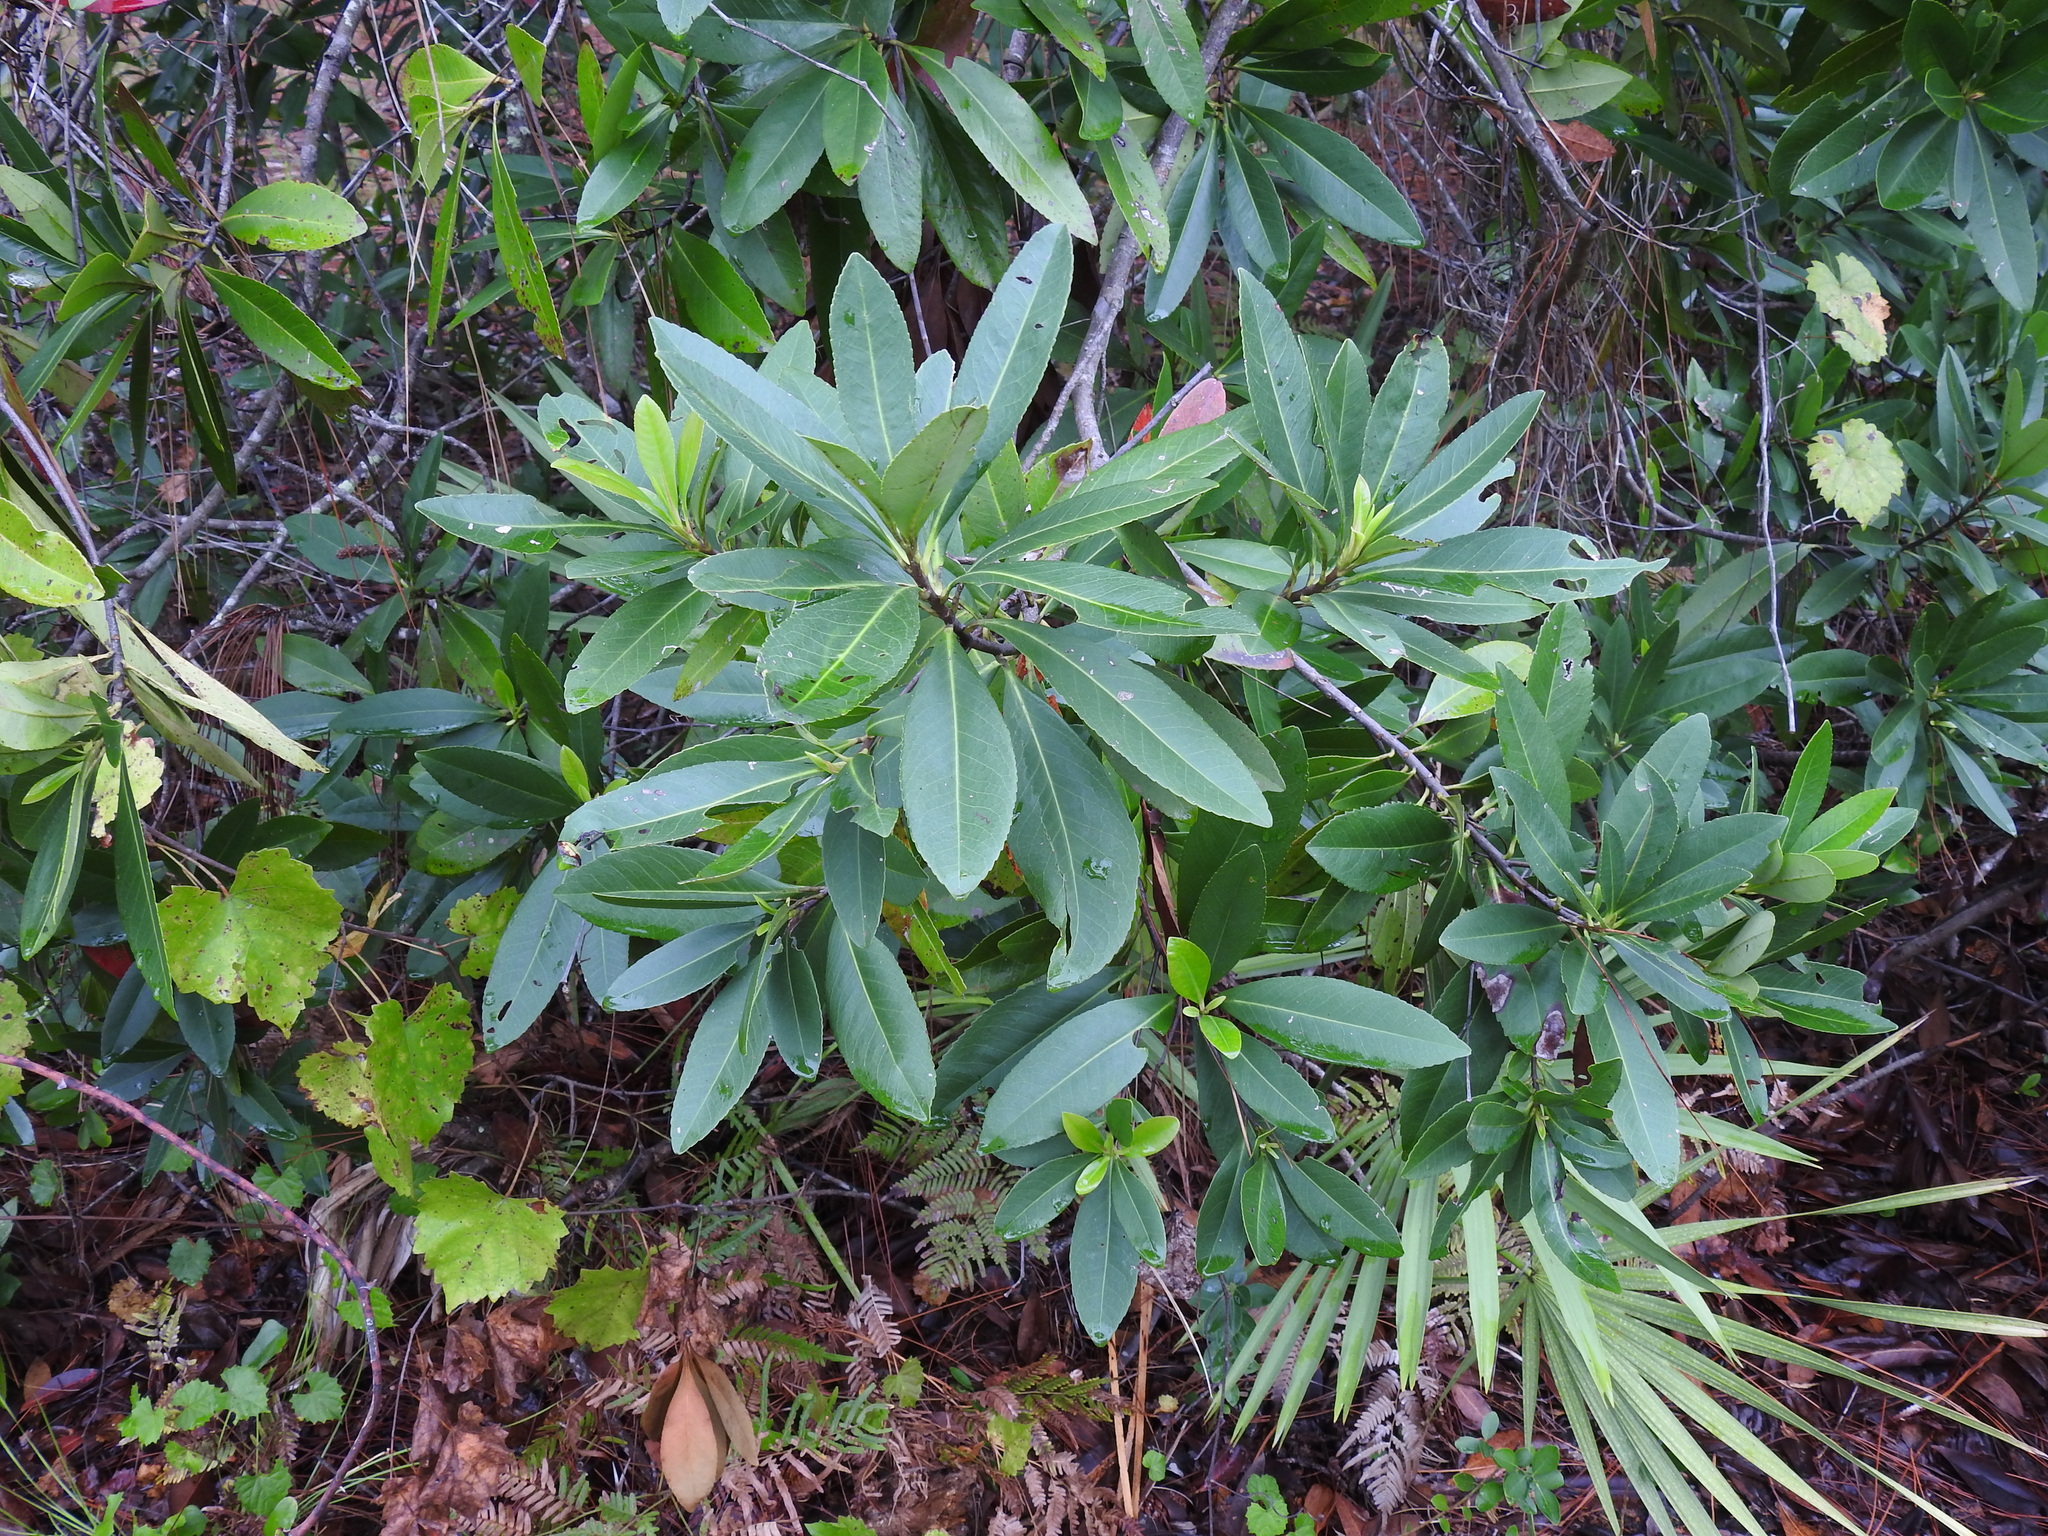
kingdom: Plantae
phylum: Tracheophyta
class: Magnoliopsida
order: Ericales
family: Theaceae
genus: Gordonia
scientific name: Gordonia lasianthus
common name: Loblolly bay
